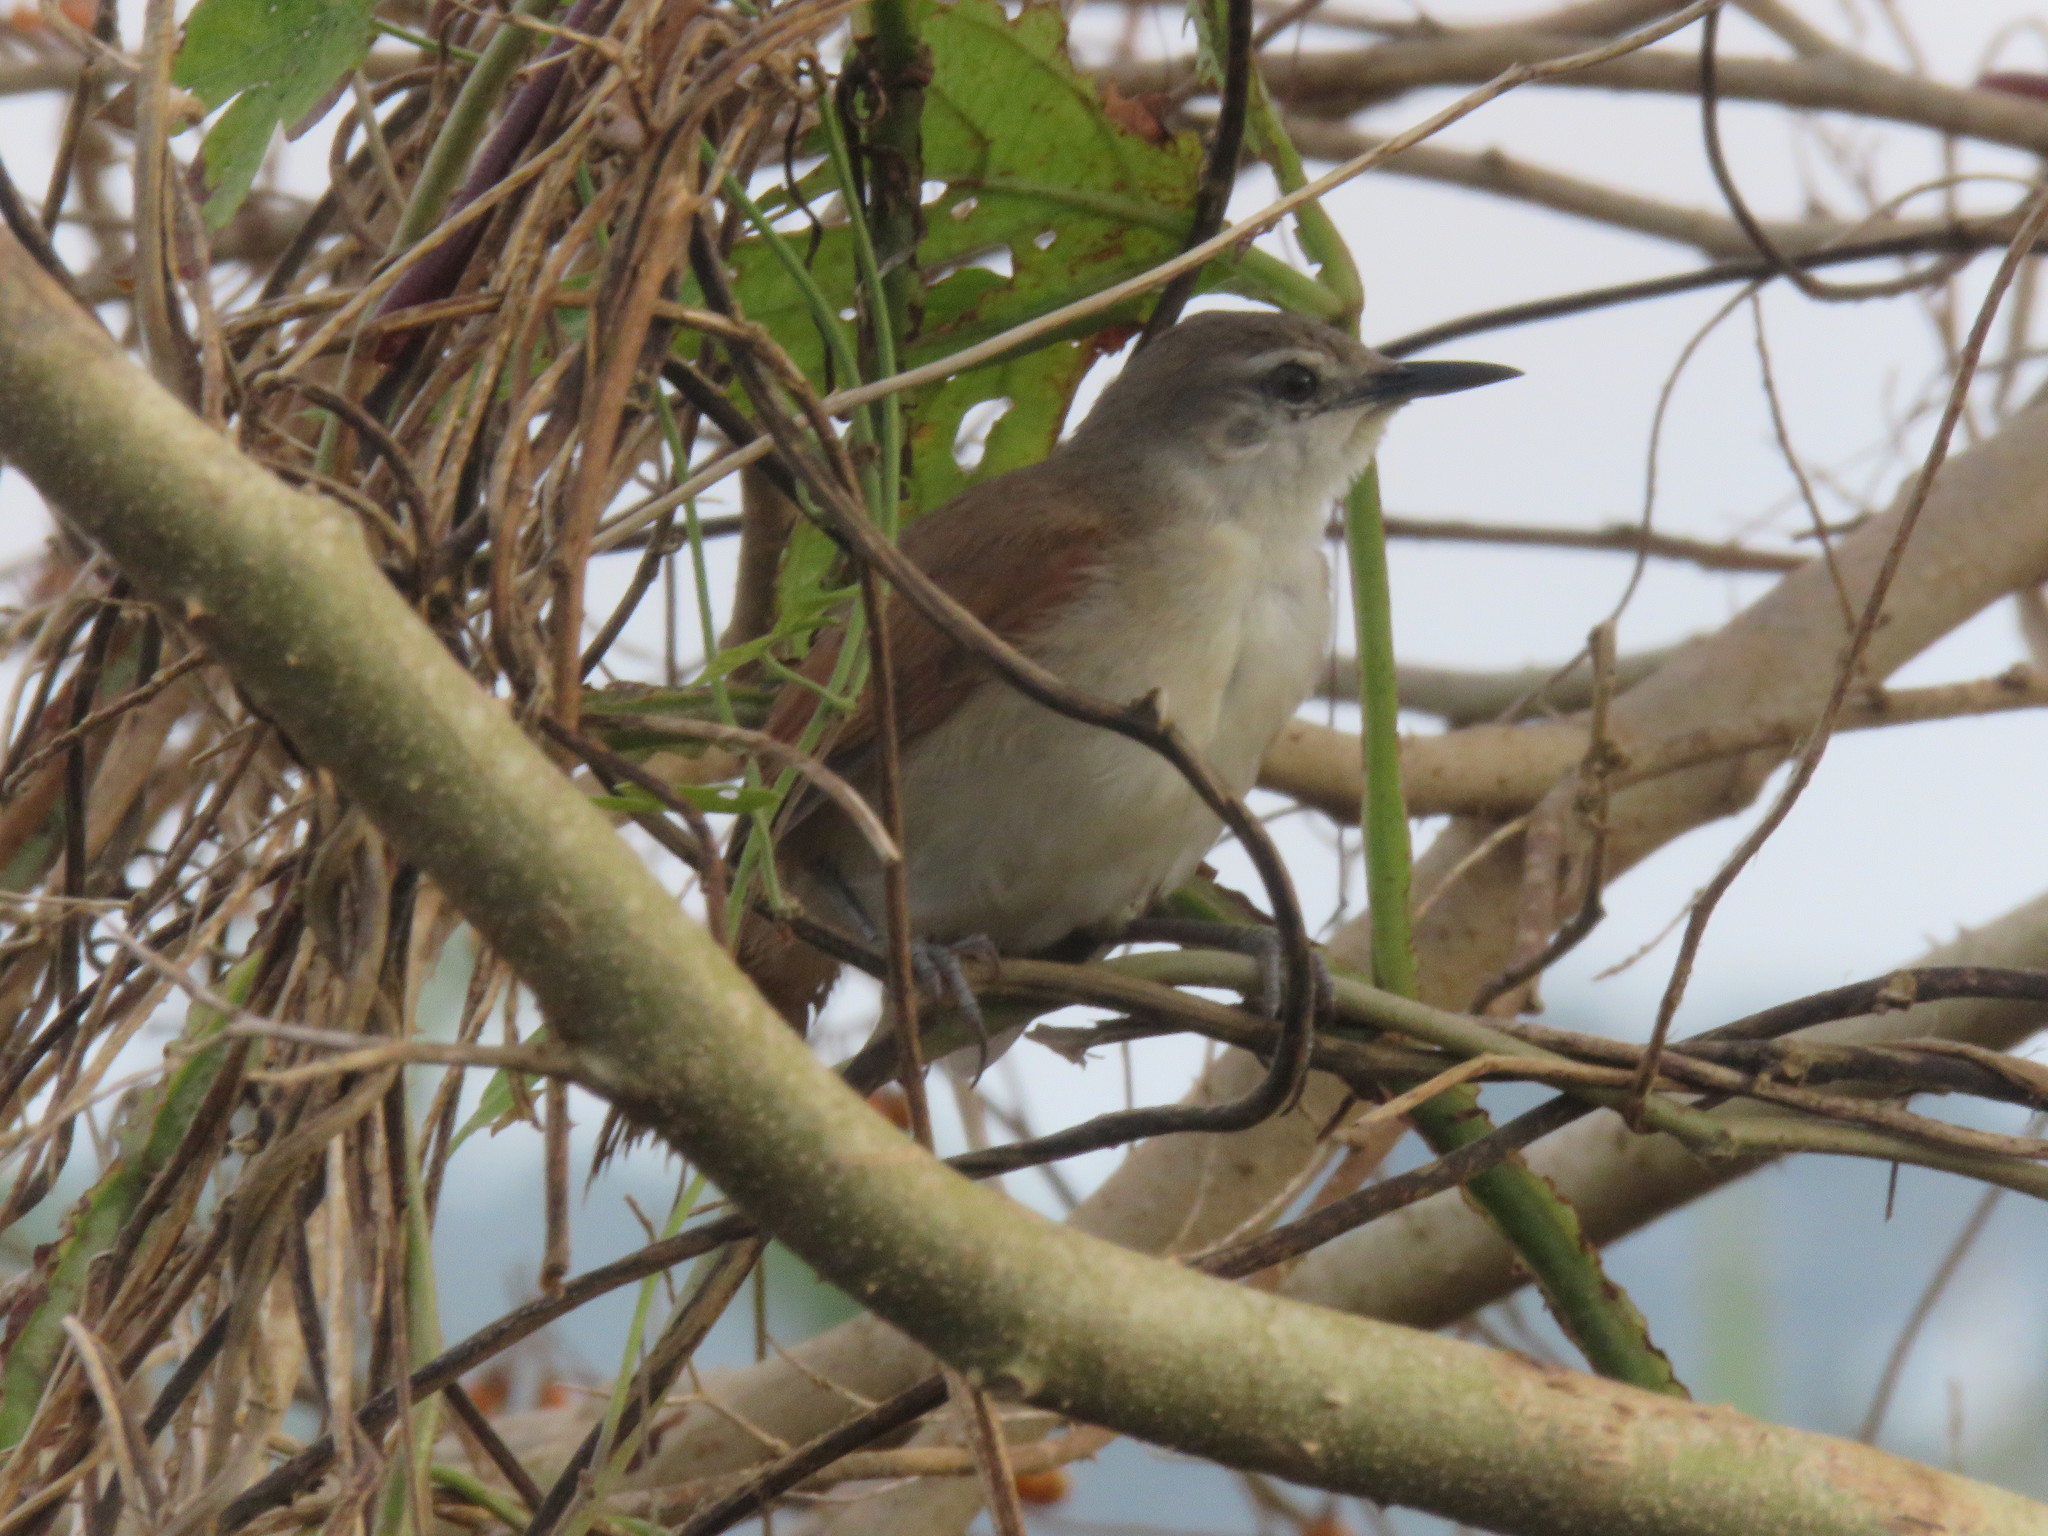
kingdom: Animalia
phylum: Chordata
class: Aves
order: Passeriformes
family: Furnariidae
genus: Certhiaxis
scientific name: Certhiaxis cinnamomeus
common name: Yellow-chinned spinetail
